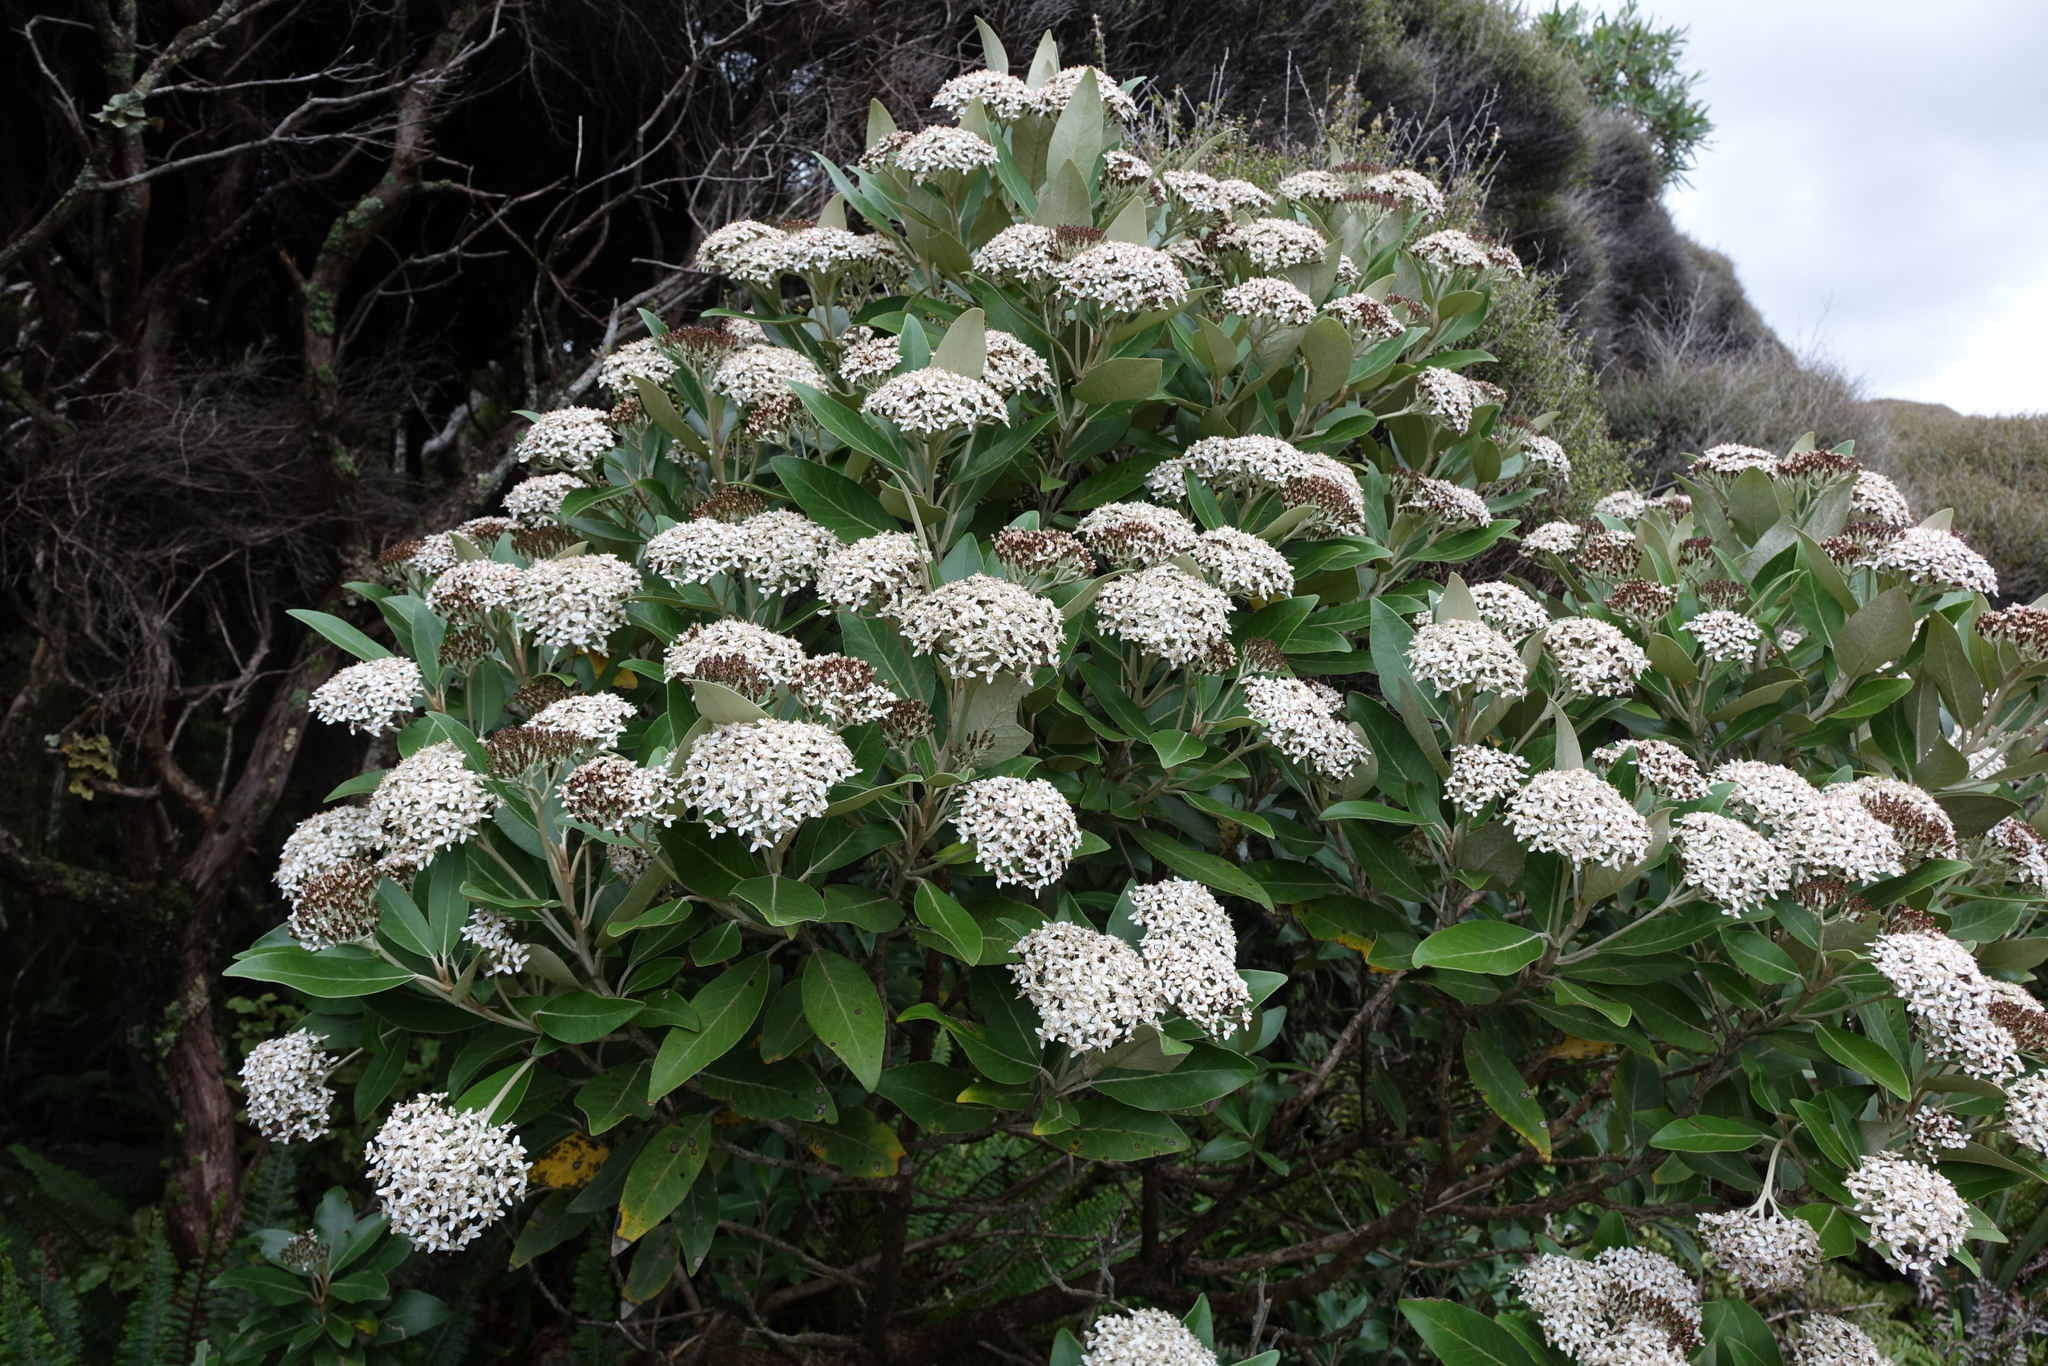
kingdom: Plantae
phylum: Tracheophyta
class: Magnoliopsida
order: Asterales
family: Asteraceae
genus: Olearia
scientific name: Olearia avicenniifolia
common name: Mangrove-leaf daisybush
